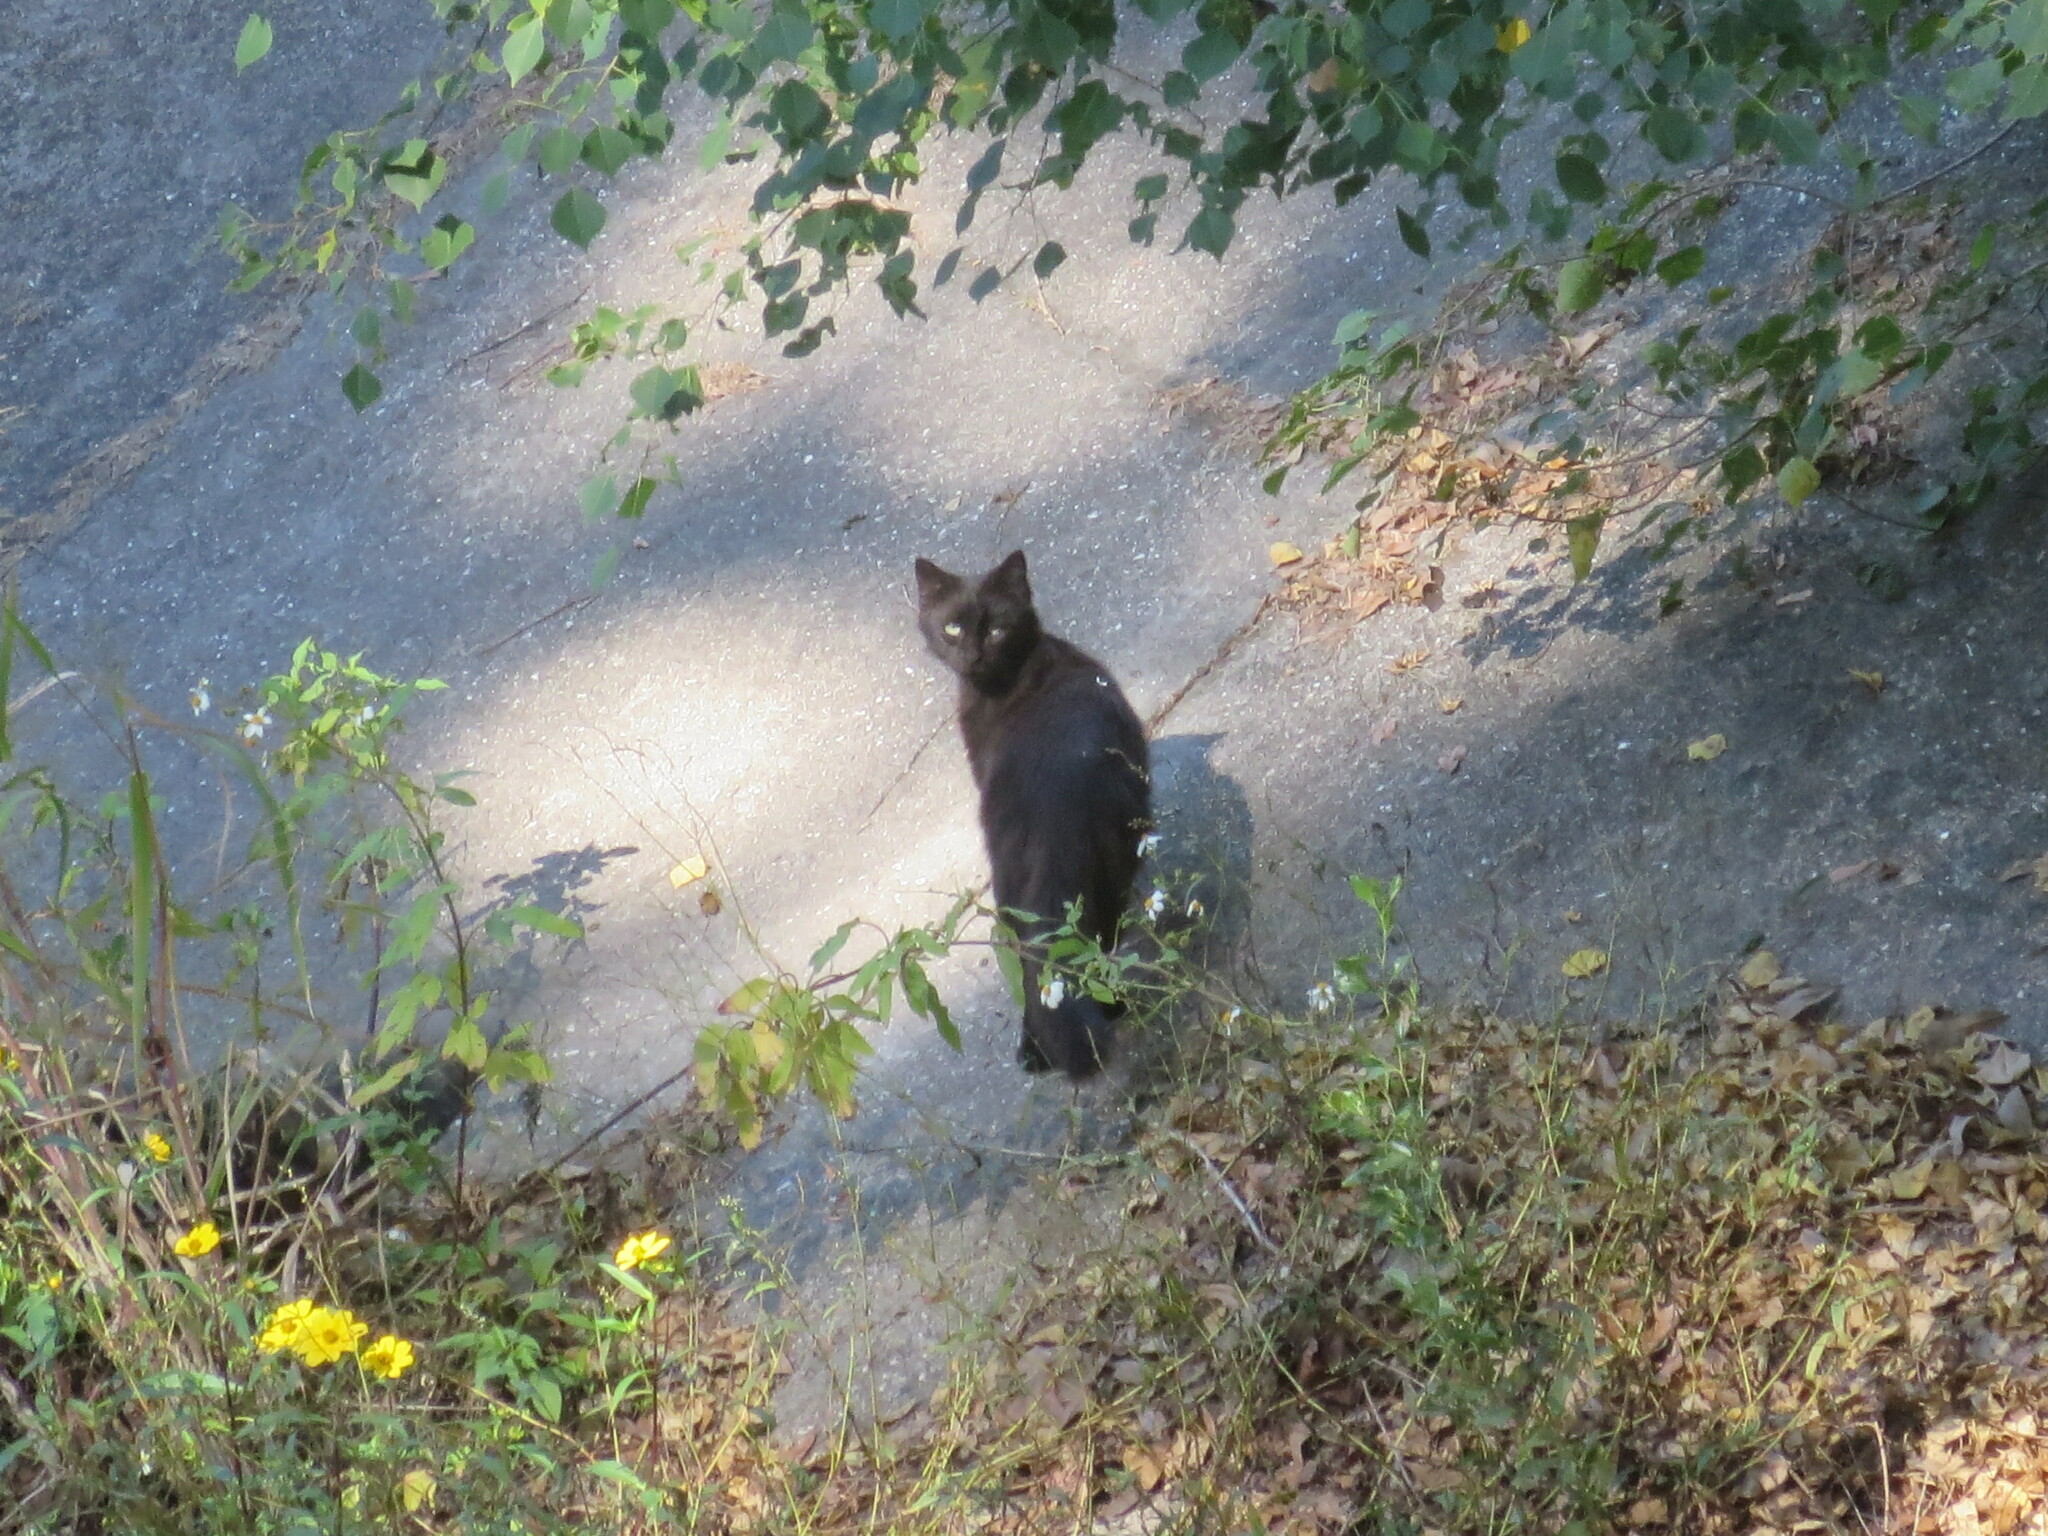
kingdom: Animalia
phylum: Chordata
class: Mammalia
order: Carnivora
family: Felidae
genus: Felis
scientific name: Felis catus
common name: Domestic cat
